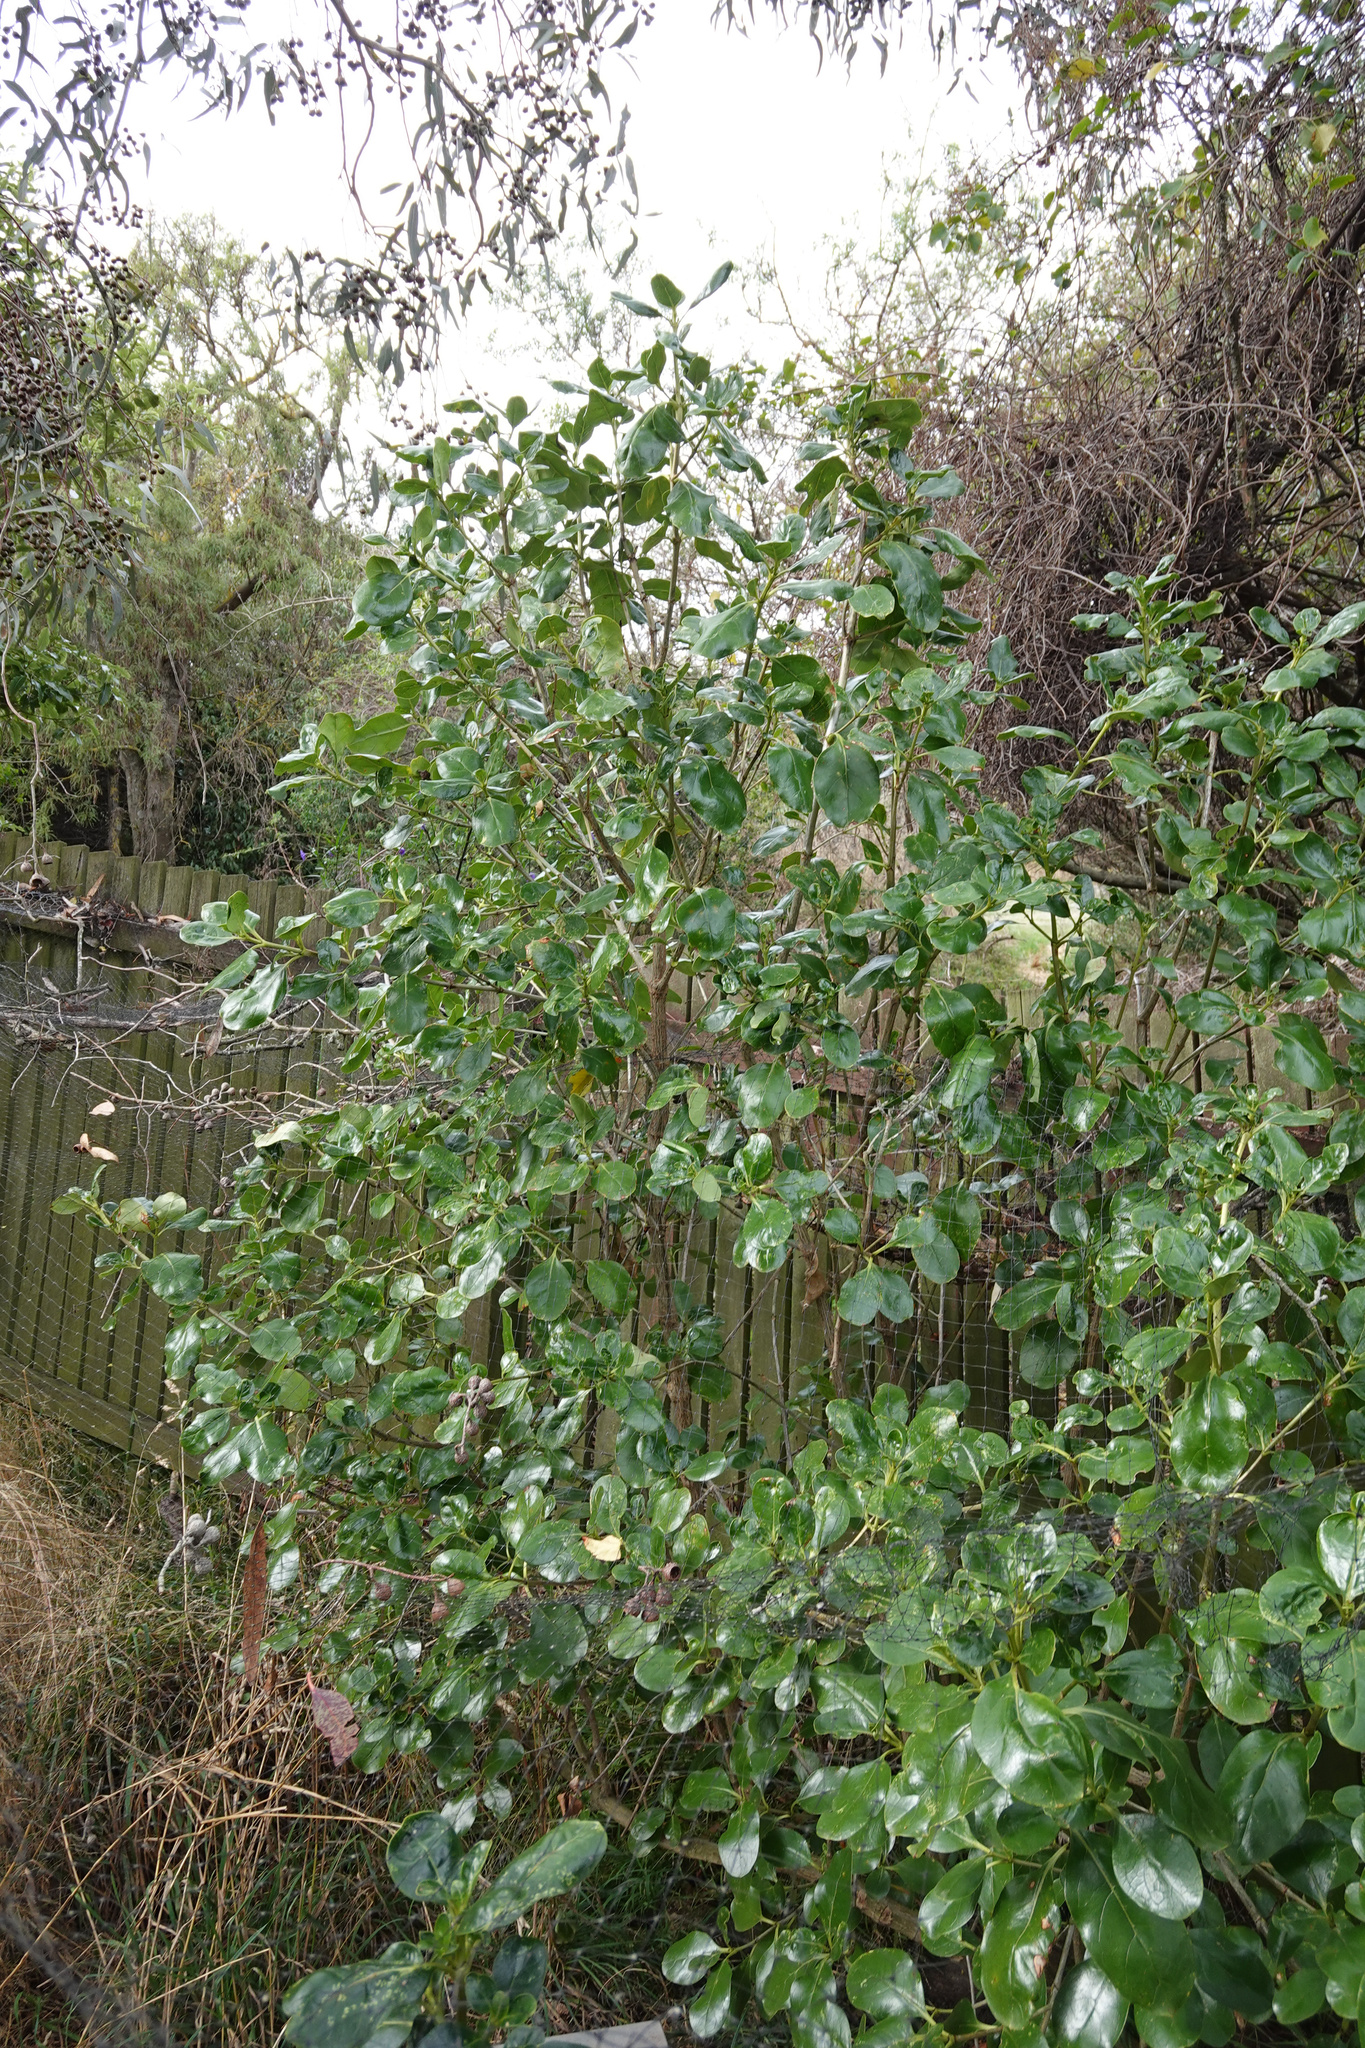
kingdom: Plantae
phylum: Tracheophyta
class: Magnoliopsida
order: Gentianales
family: Rubiaceae
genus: Coprosma
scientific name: Coprosma repens
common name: Tree bedstraw
